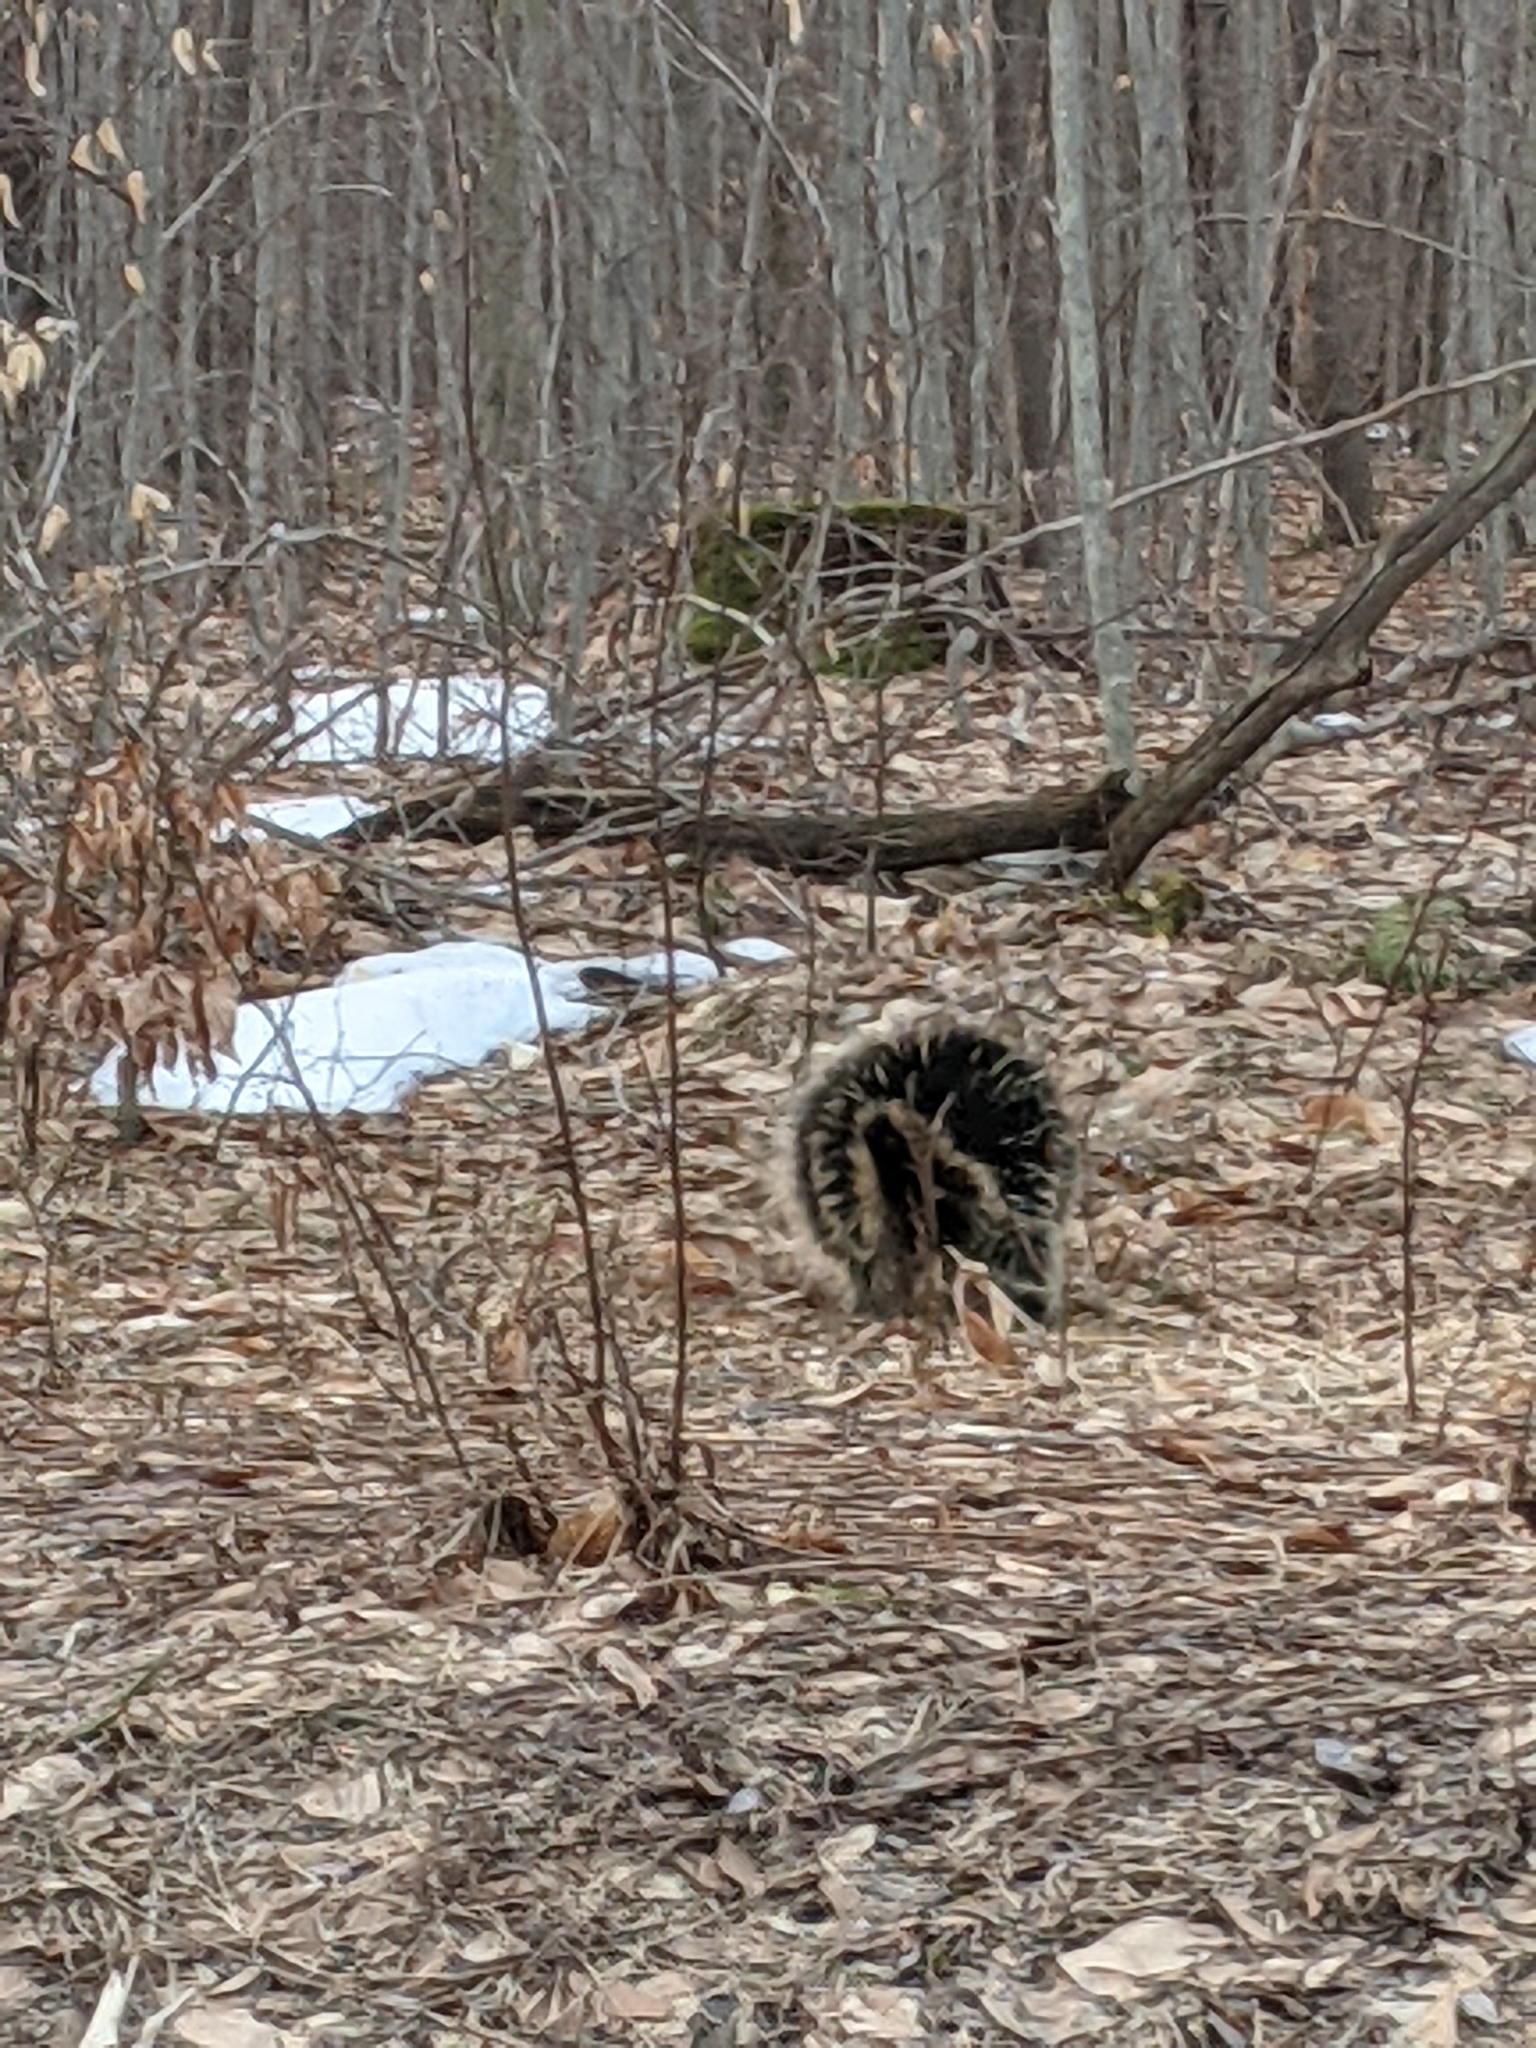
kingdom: Animalia
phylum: Chordata
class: Mammalia
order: Rodentia
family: Erethizontidae
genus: Erethizon
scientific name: Erethizon dorsatus
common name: North american porcupine
